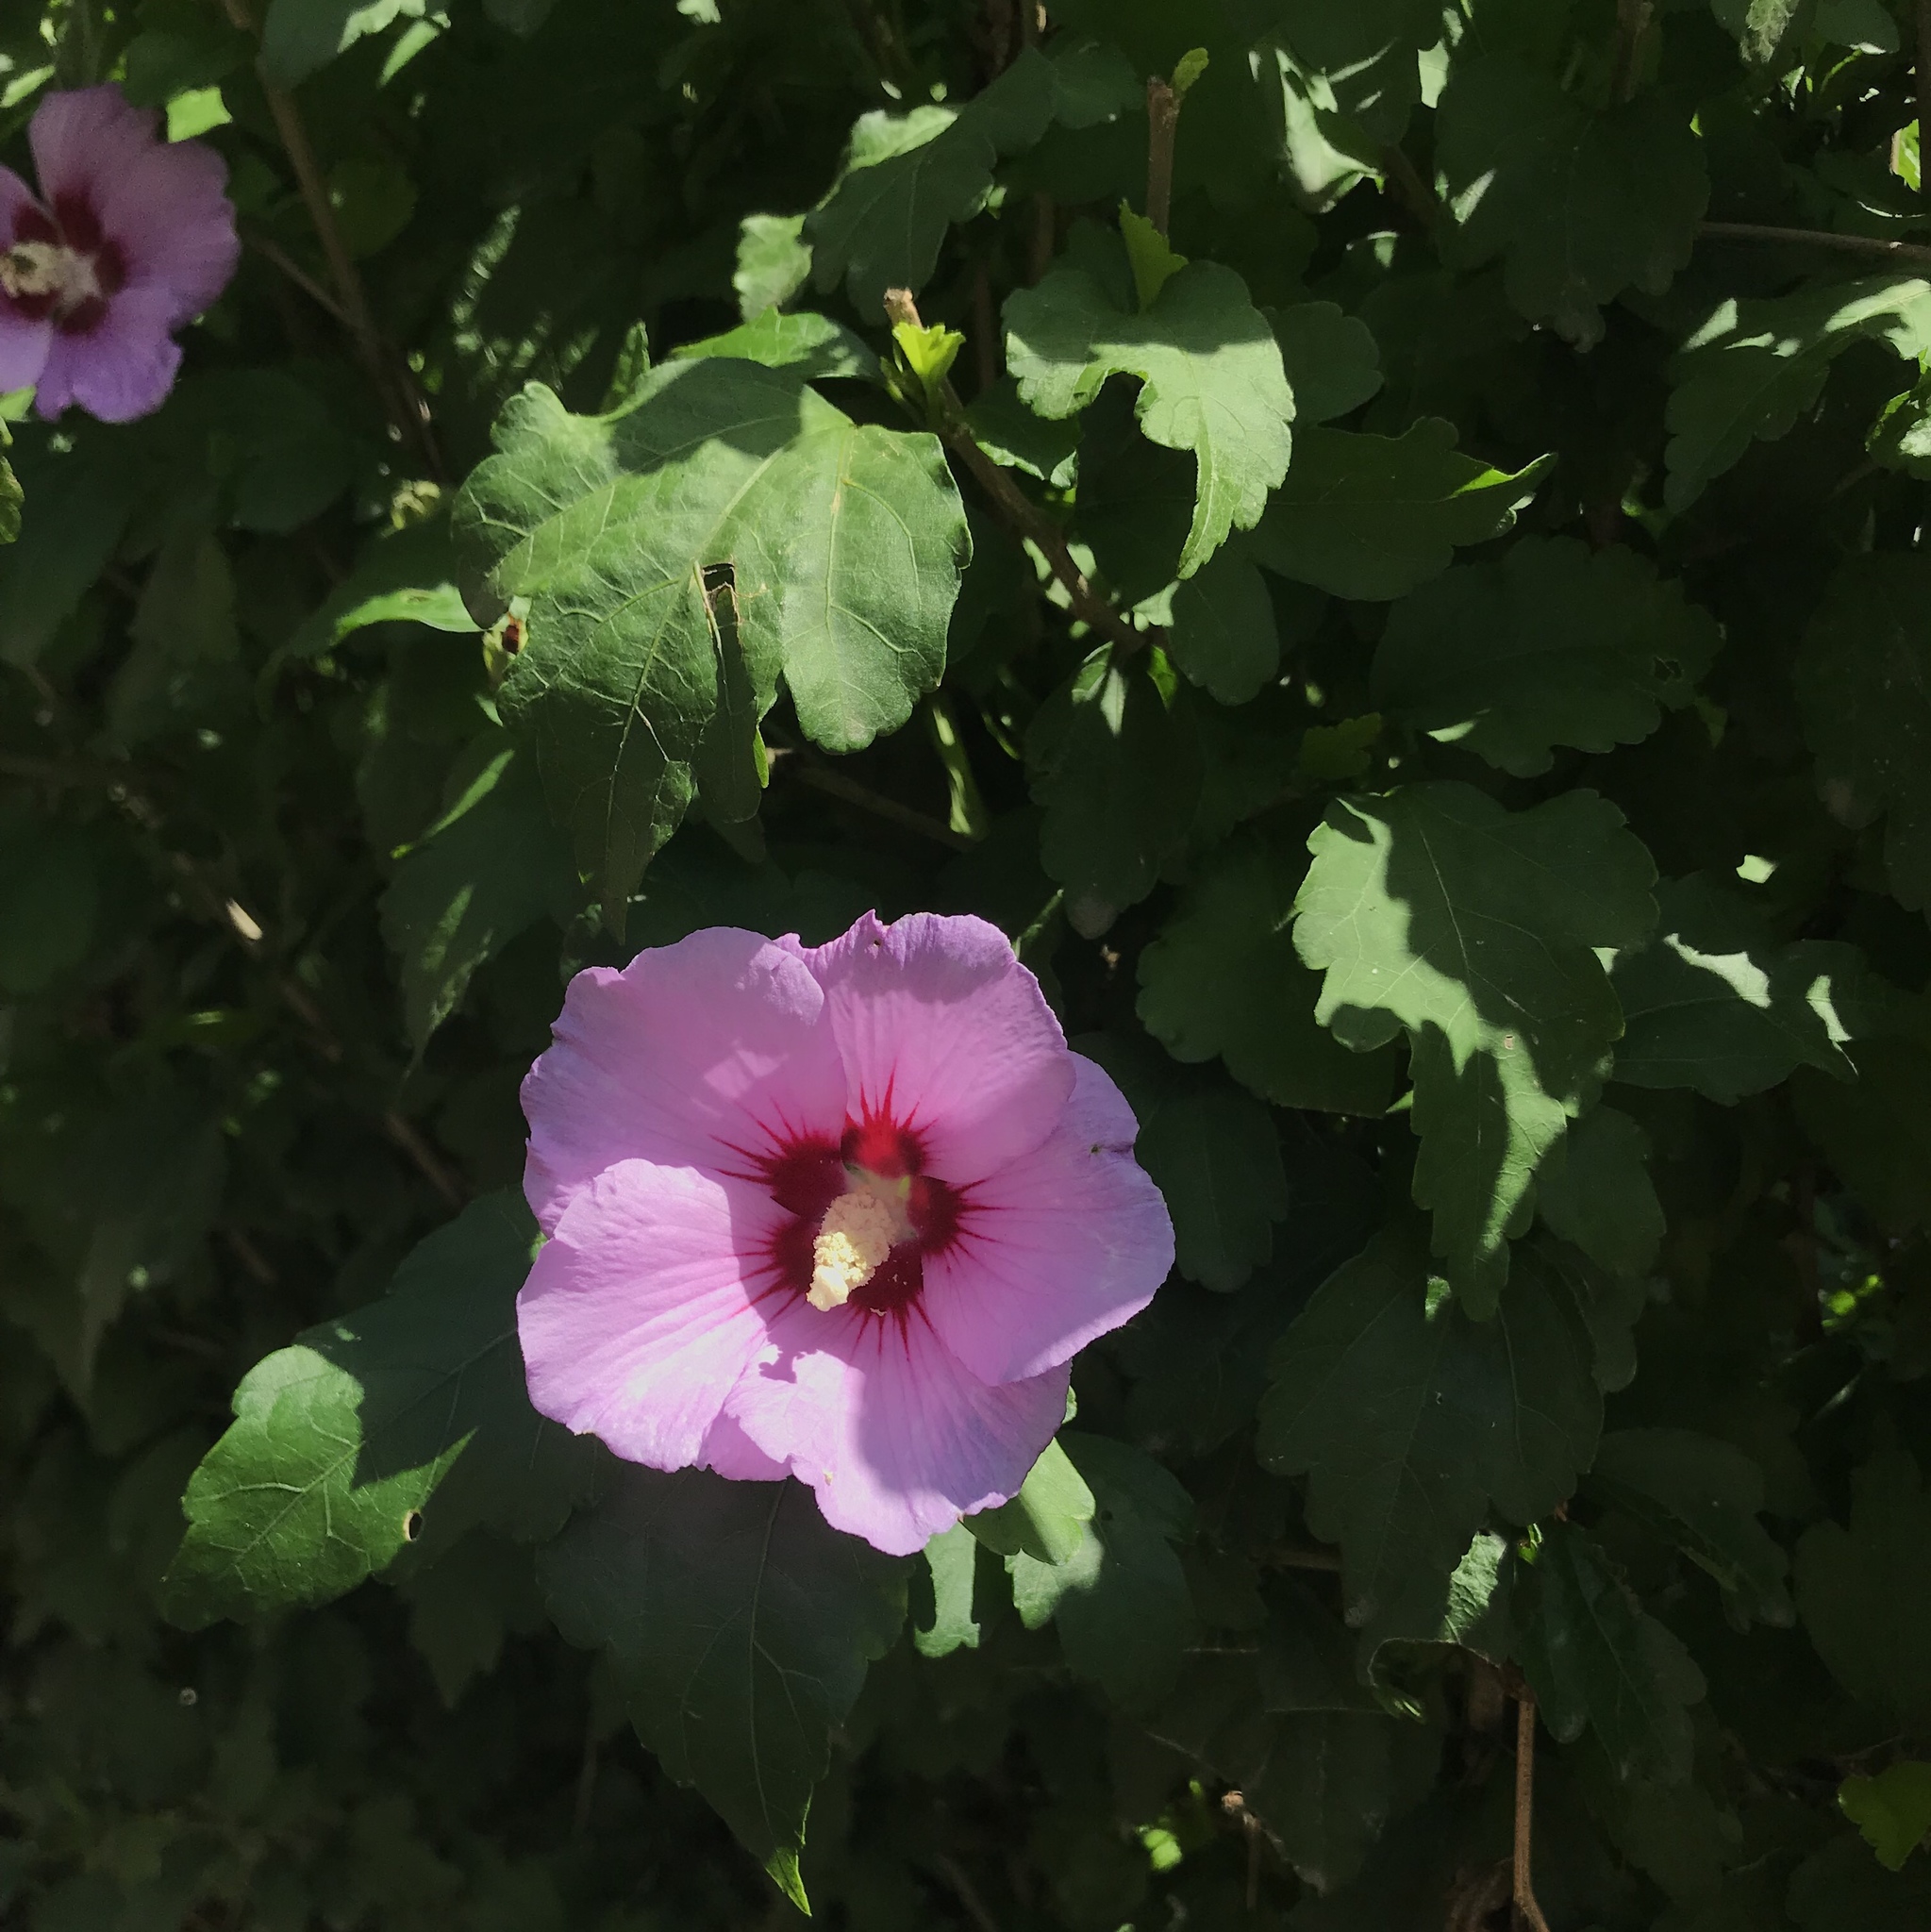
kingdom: Plantae
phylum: Tracheophyta
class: Magnoliopsida
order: Malvales
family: Malvaceae
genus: Hibiscus
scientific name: Hibiscus syriacus
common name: Syrian ketmia
